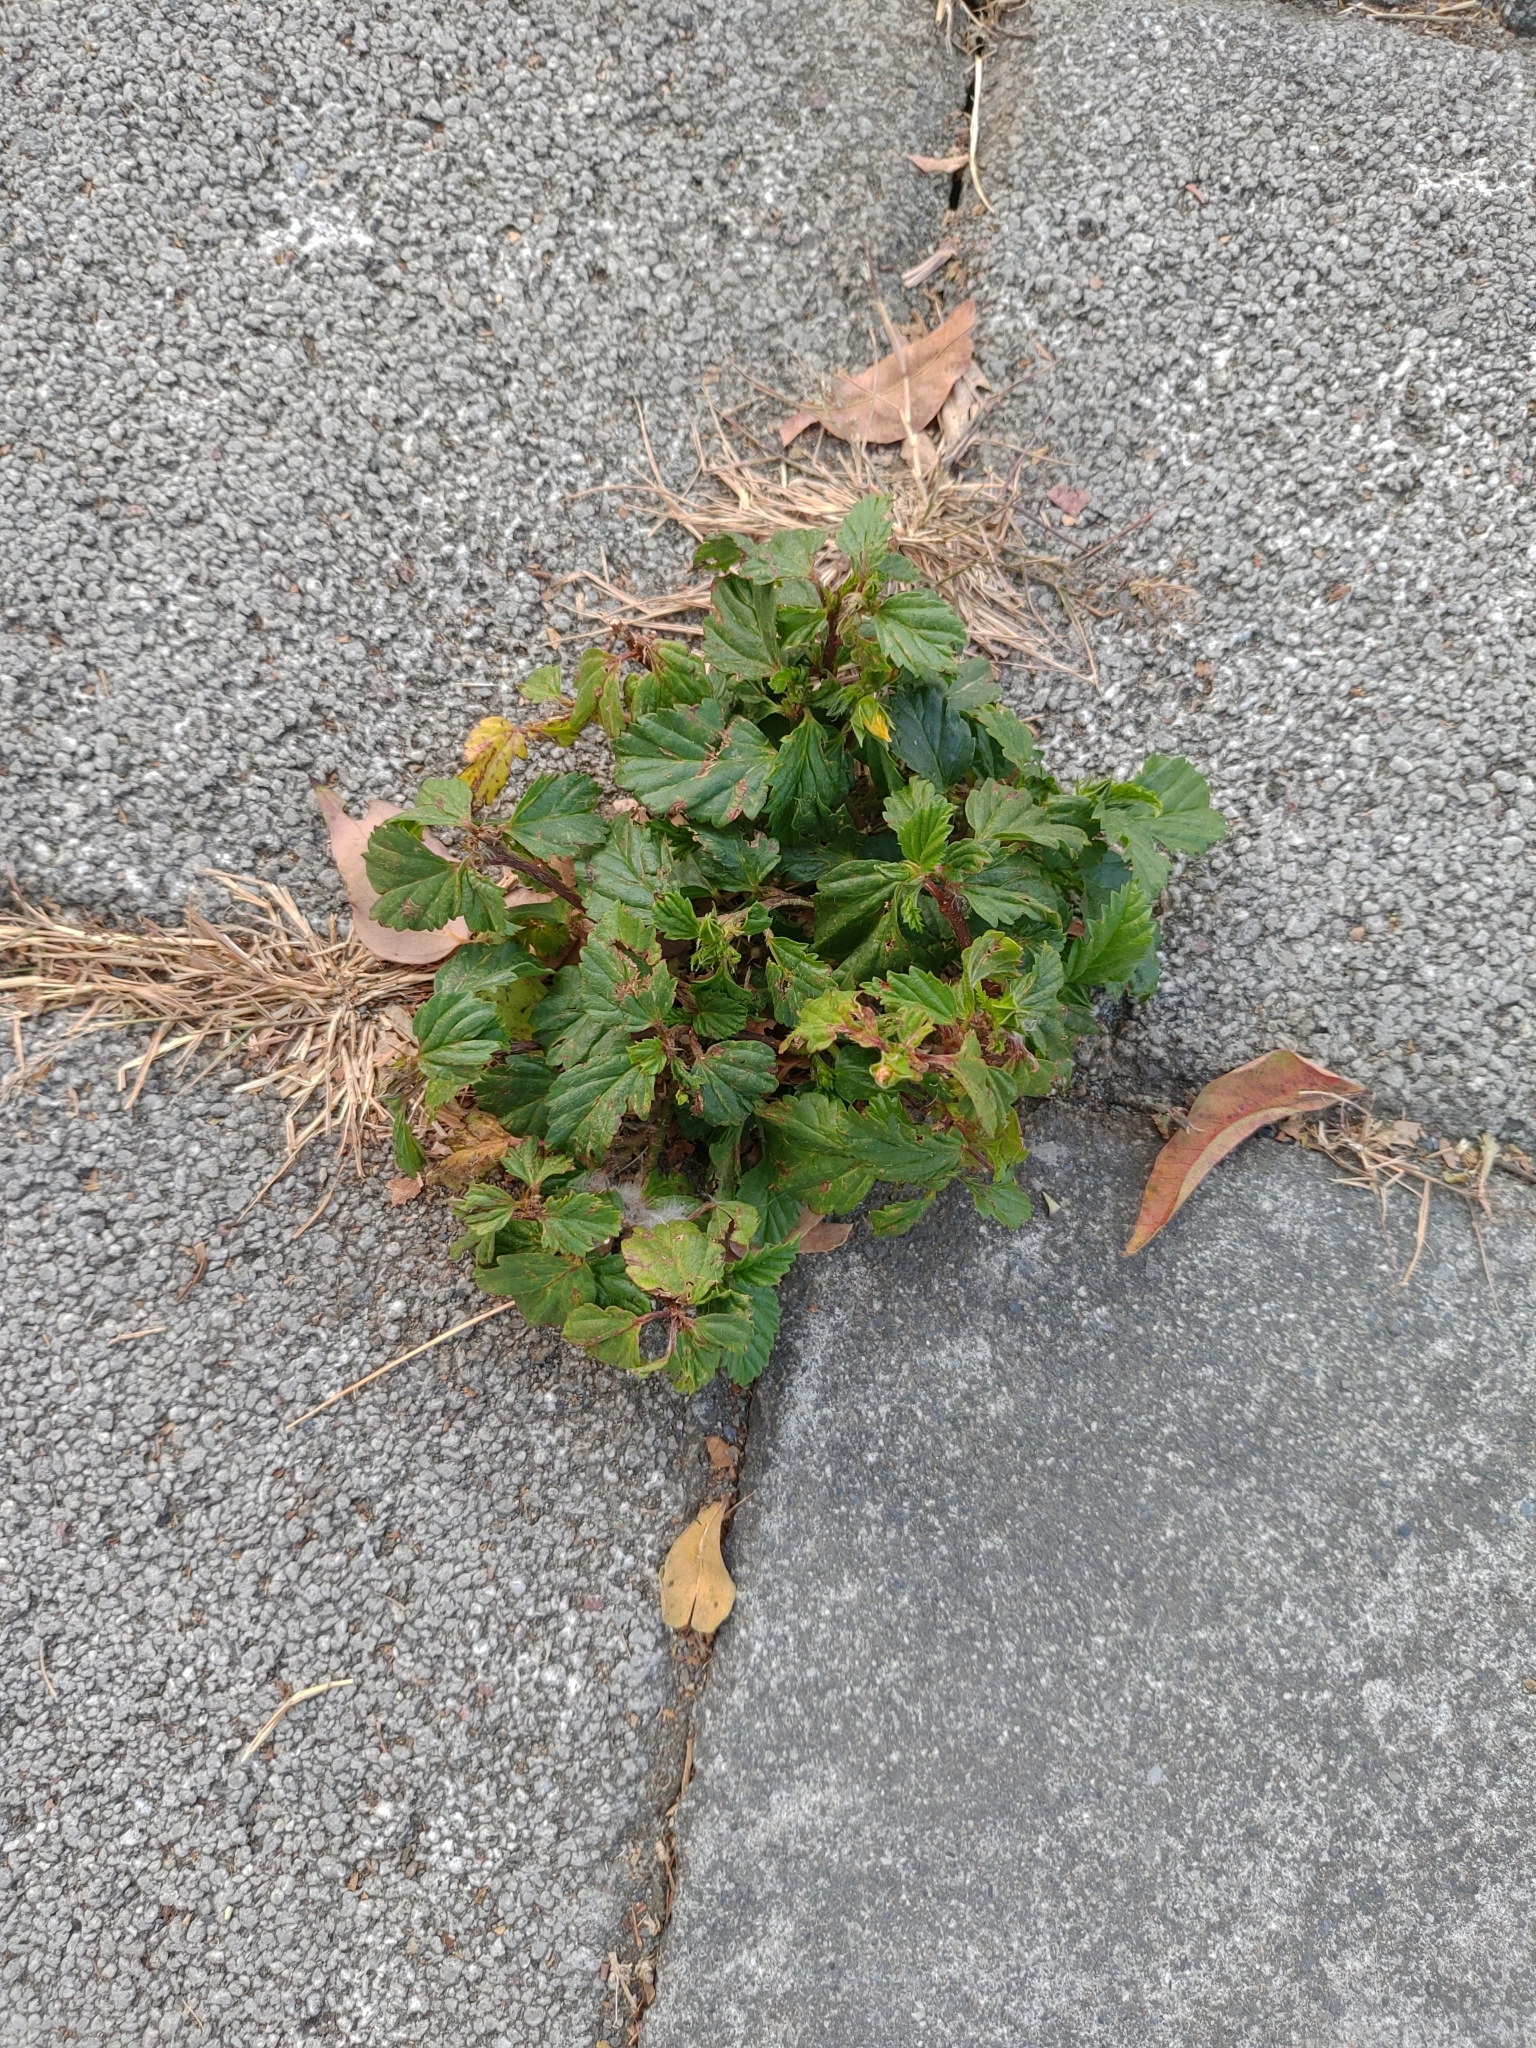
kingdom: Plantae
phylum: Tracheophyta
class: Magnoliopsida
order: Malvales
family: Malvaceae
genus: Malvastrum
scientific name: Malvastrum coromandelianum
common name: Threelobe false mallow
